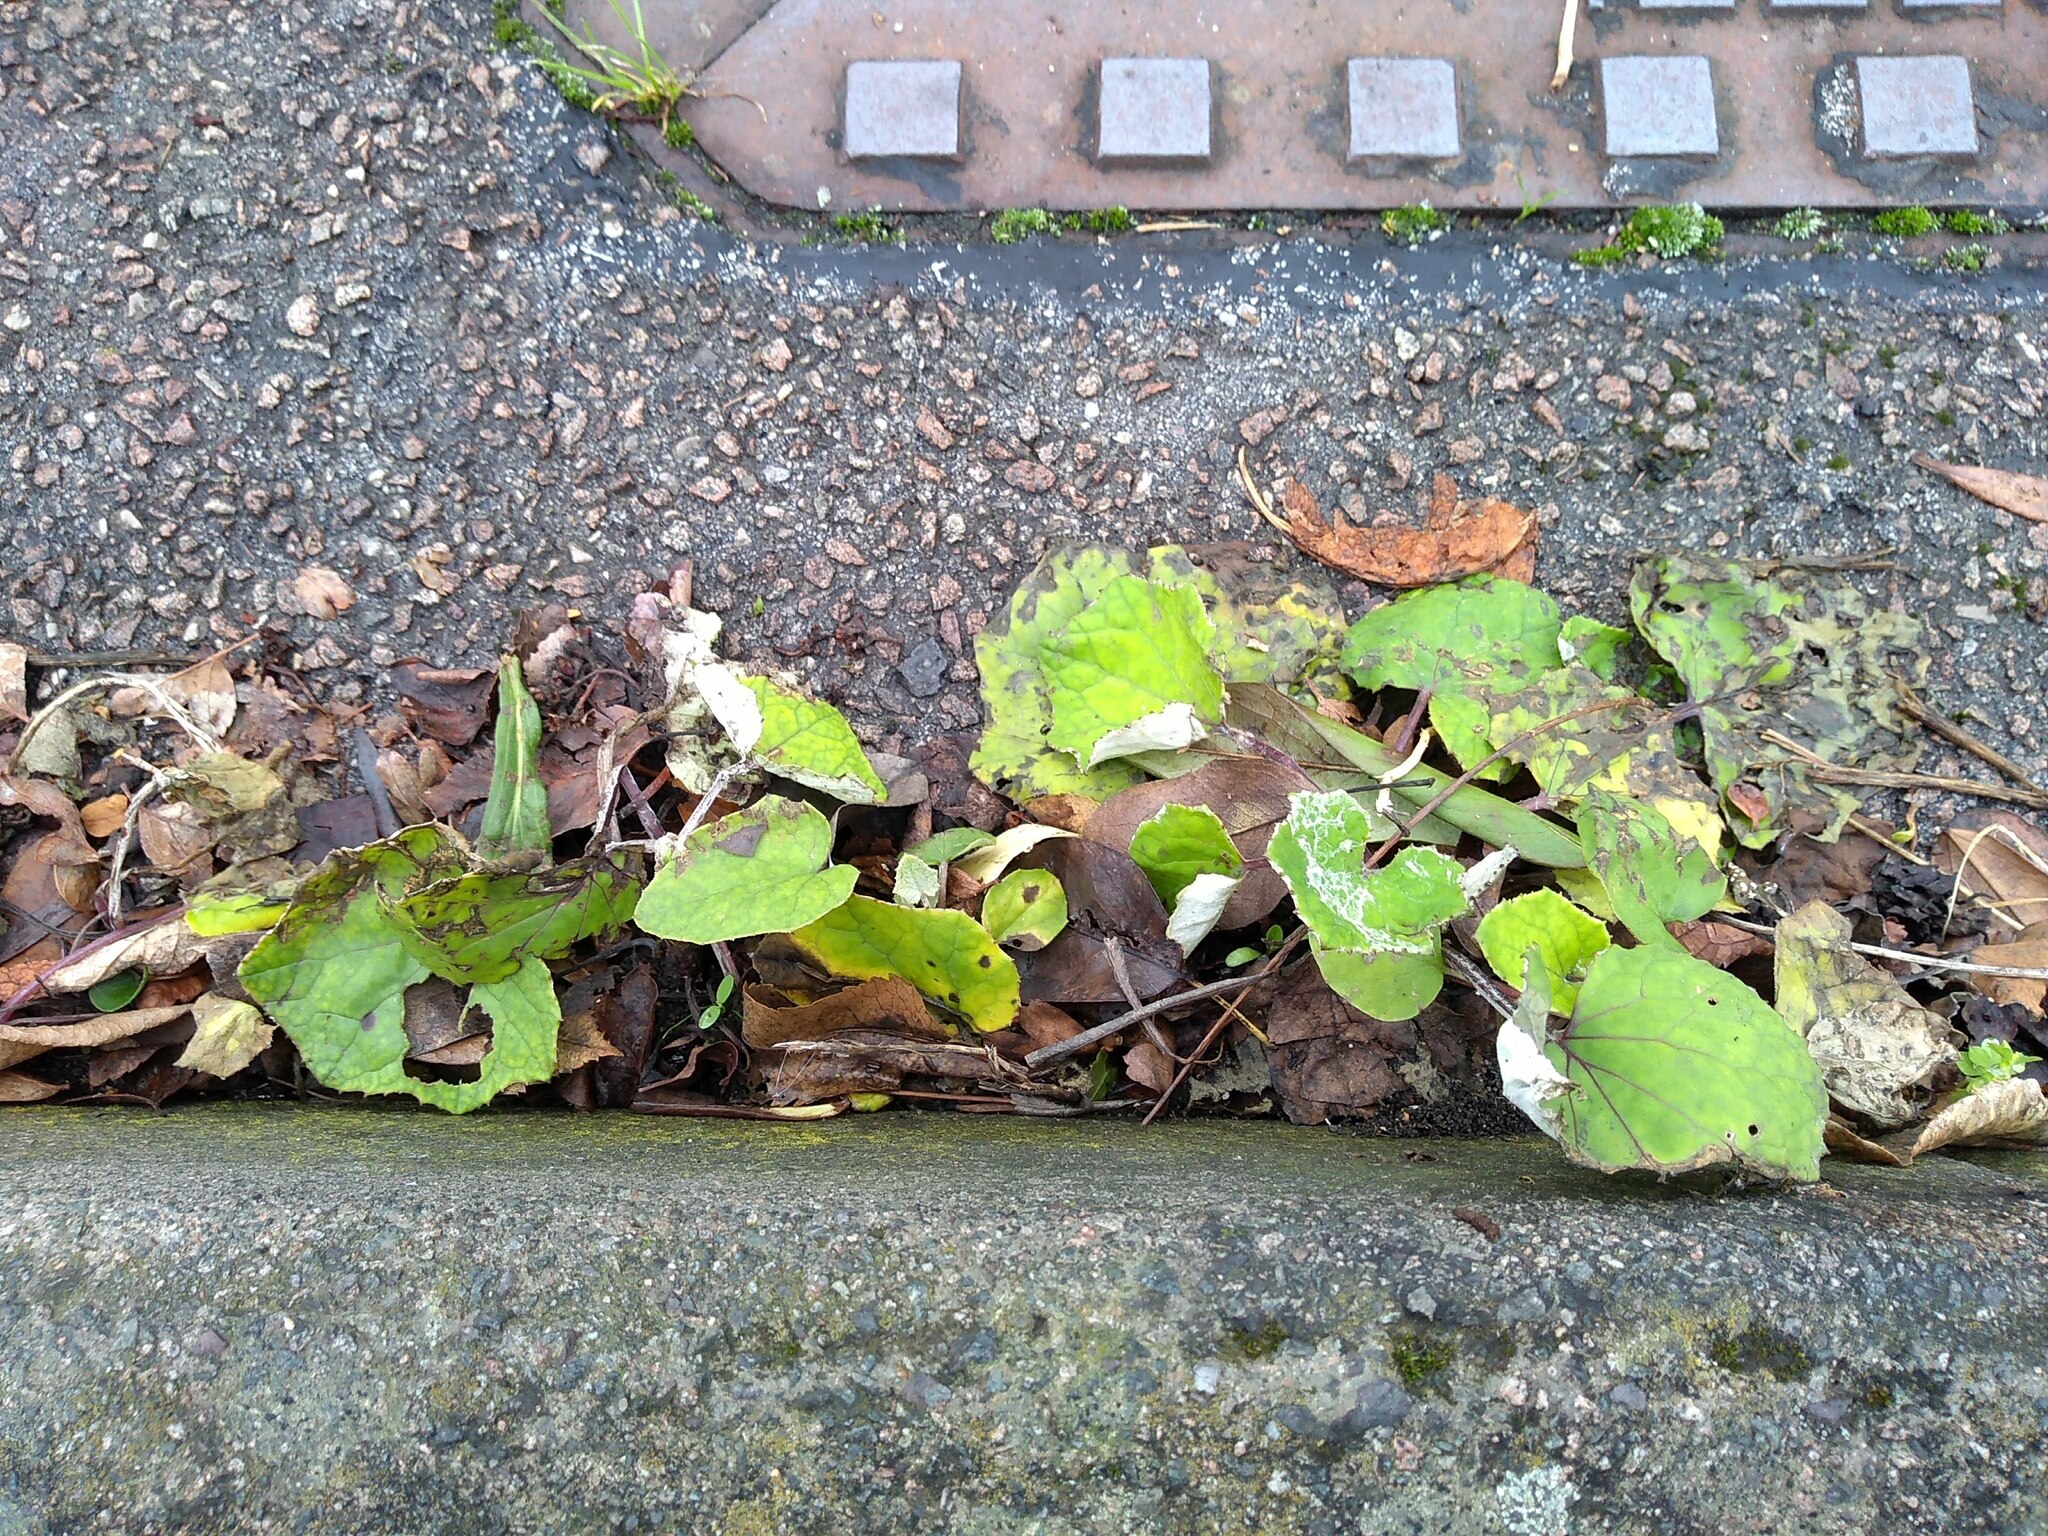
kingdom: Plantae
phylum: Tracheophyta
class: Magnoliopsida
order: Asterales
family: Asteraceae
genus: Tussilago
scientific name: Tussilago farfara
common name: Coltsfoot
